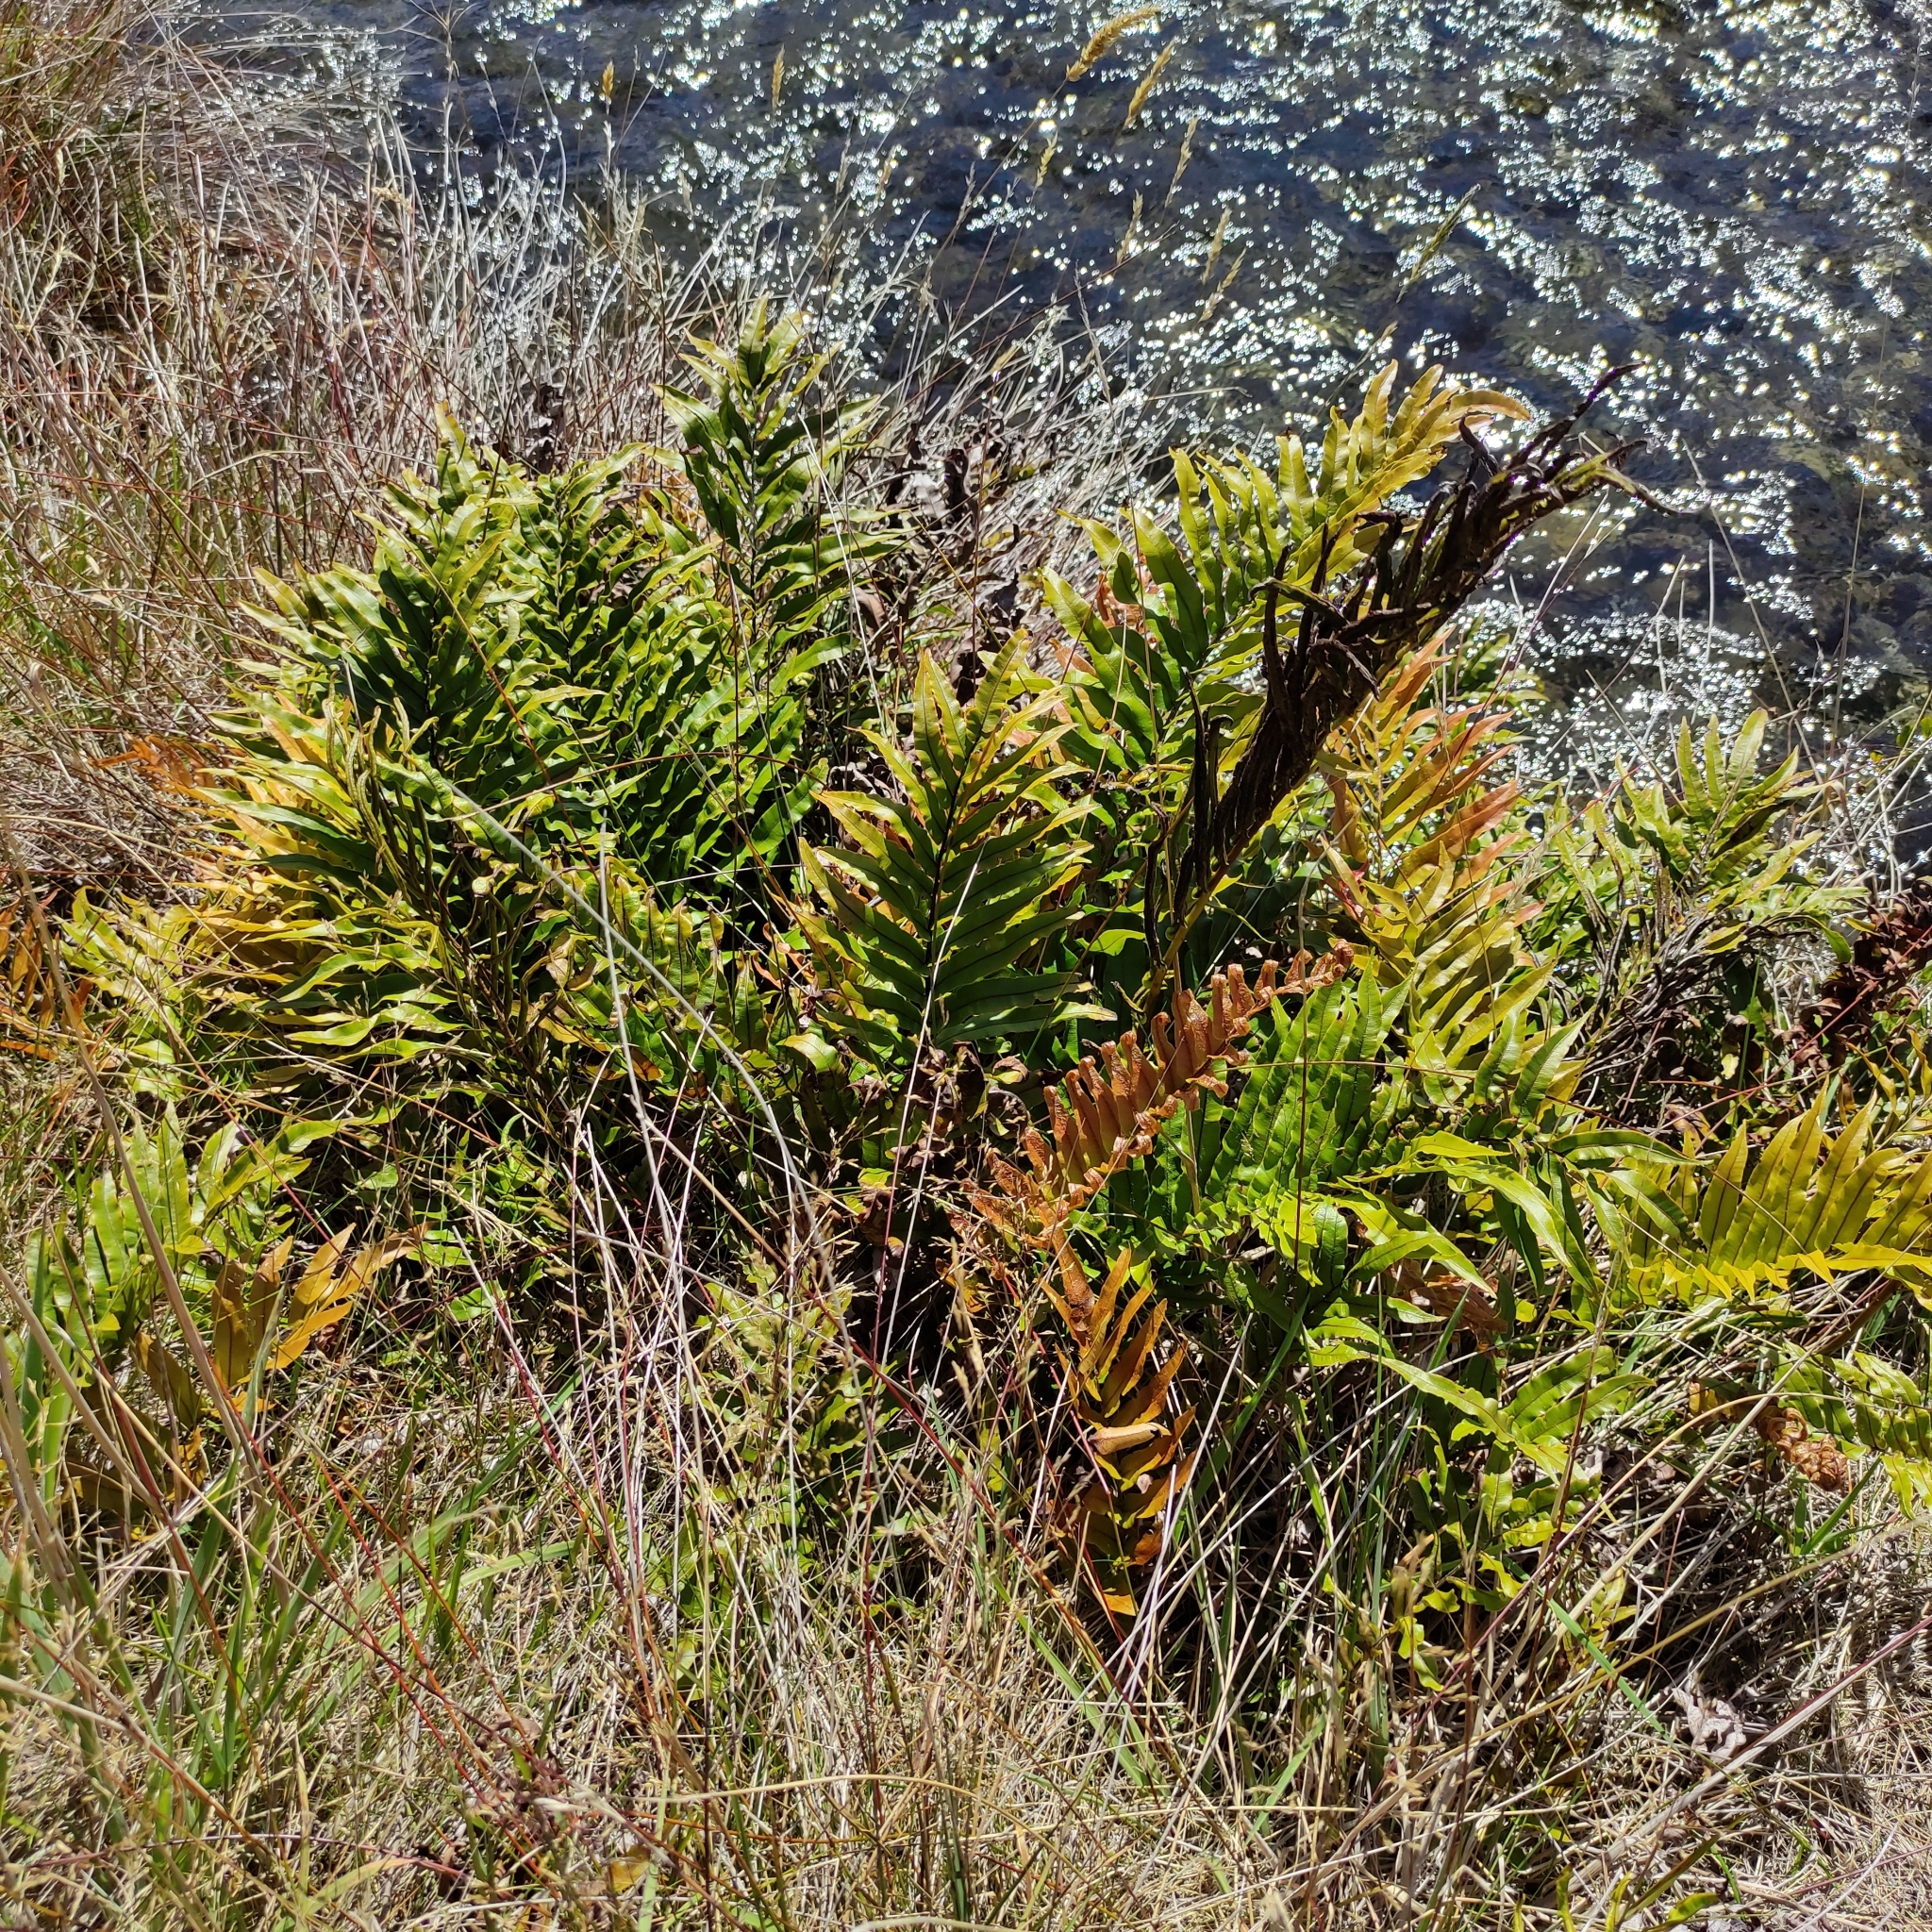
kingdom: Plantae
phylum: Tracheophyta
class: Polypodiopsida
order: Polypodiales
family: Blechnaceae
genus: Parablechnum
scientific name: Parablechnum montanum
